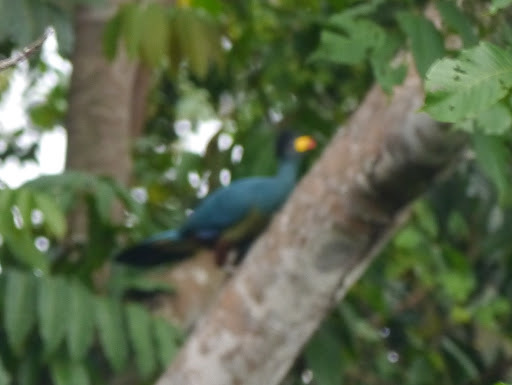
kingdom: Animalia
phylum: Chordata
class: Aves
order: Musophagiformes
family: Musophagidae
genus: Corythaeola
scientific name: Corythaeola cristata
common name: Great blue turaco
